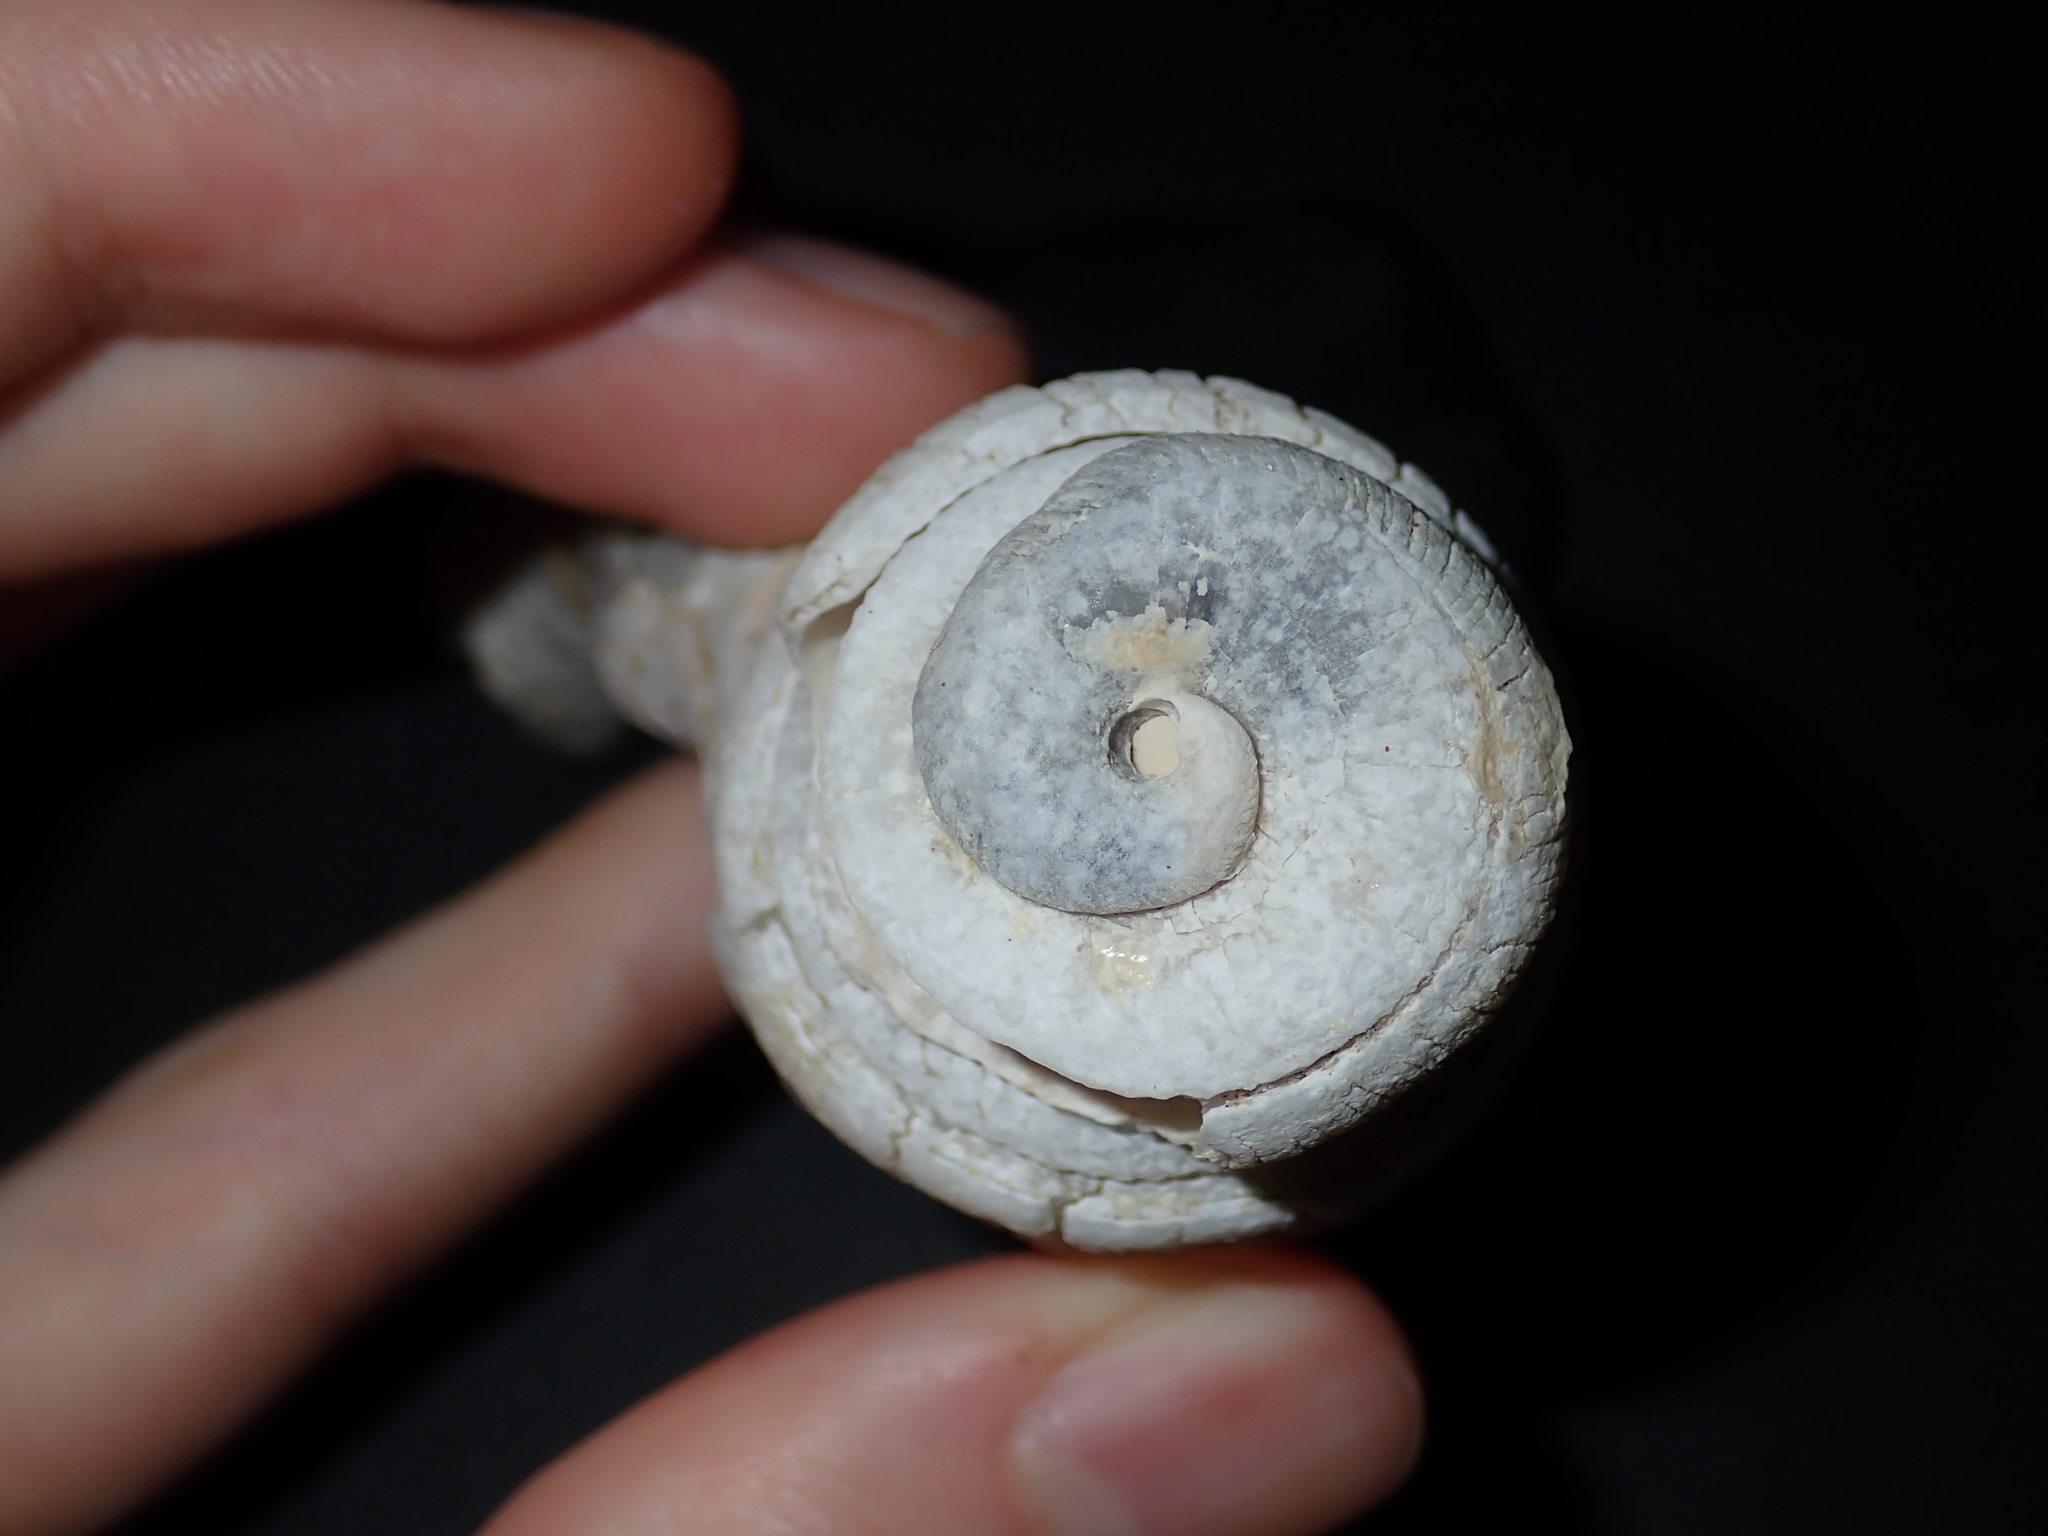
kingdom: Animalia
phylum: Mollusca
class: Gastropoda
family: Siliquariidae
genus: Tenagodus
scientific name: Tenagodus ponderosus
